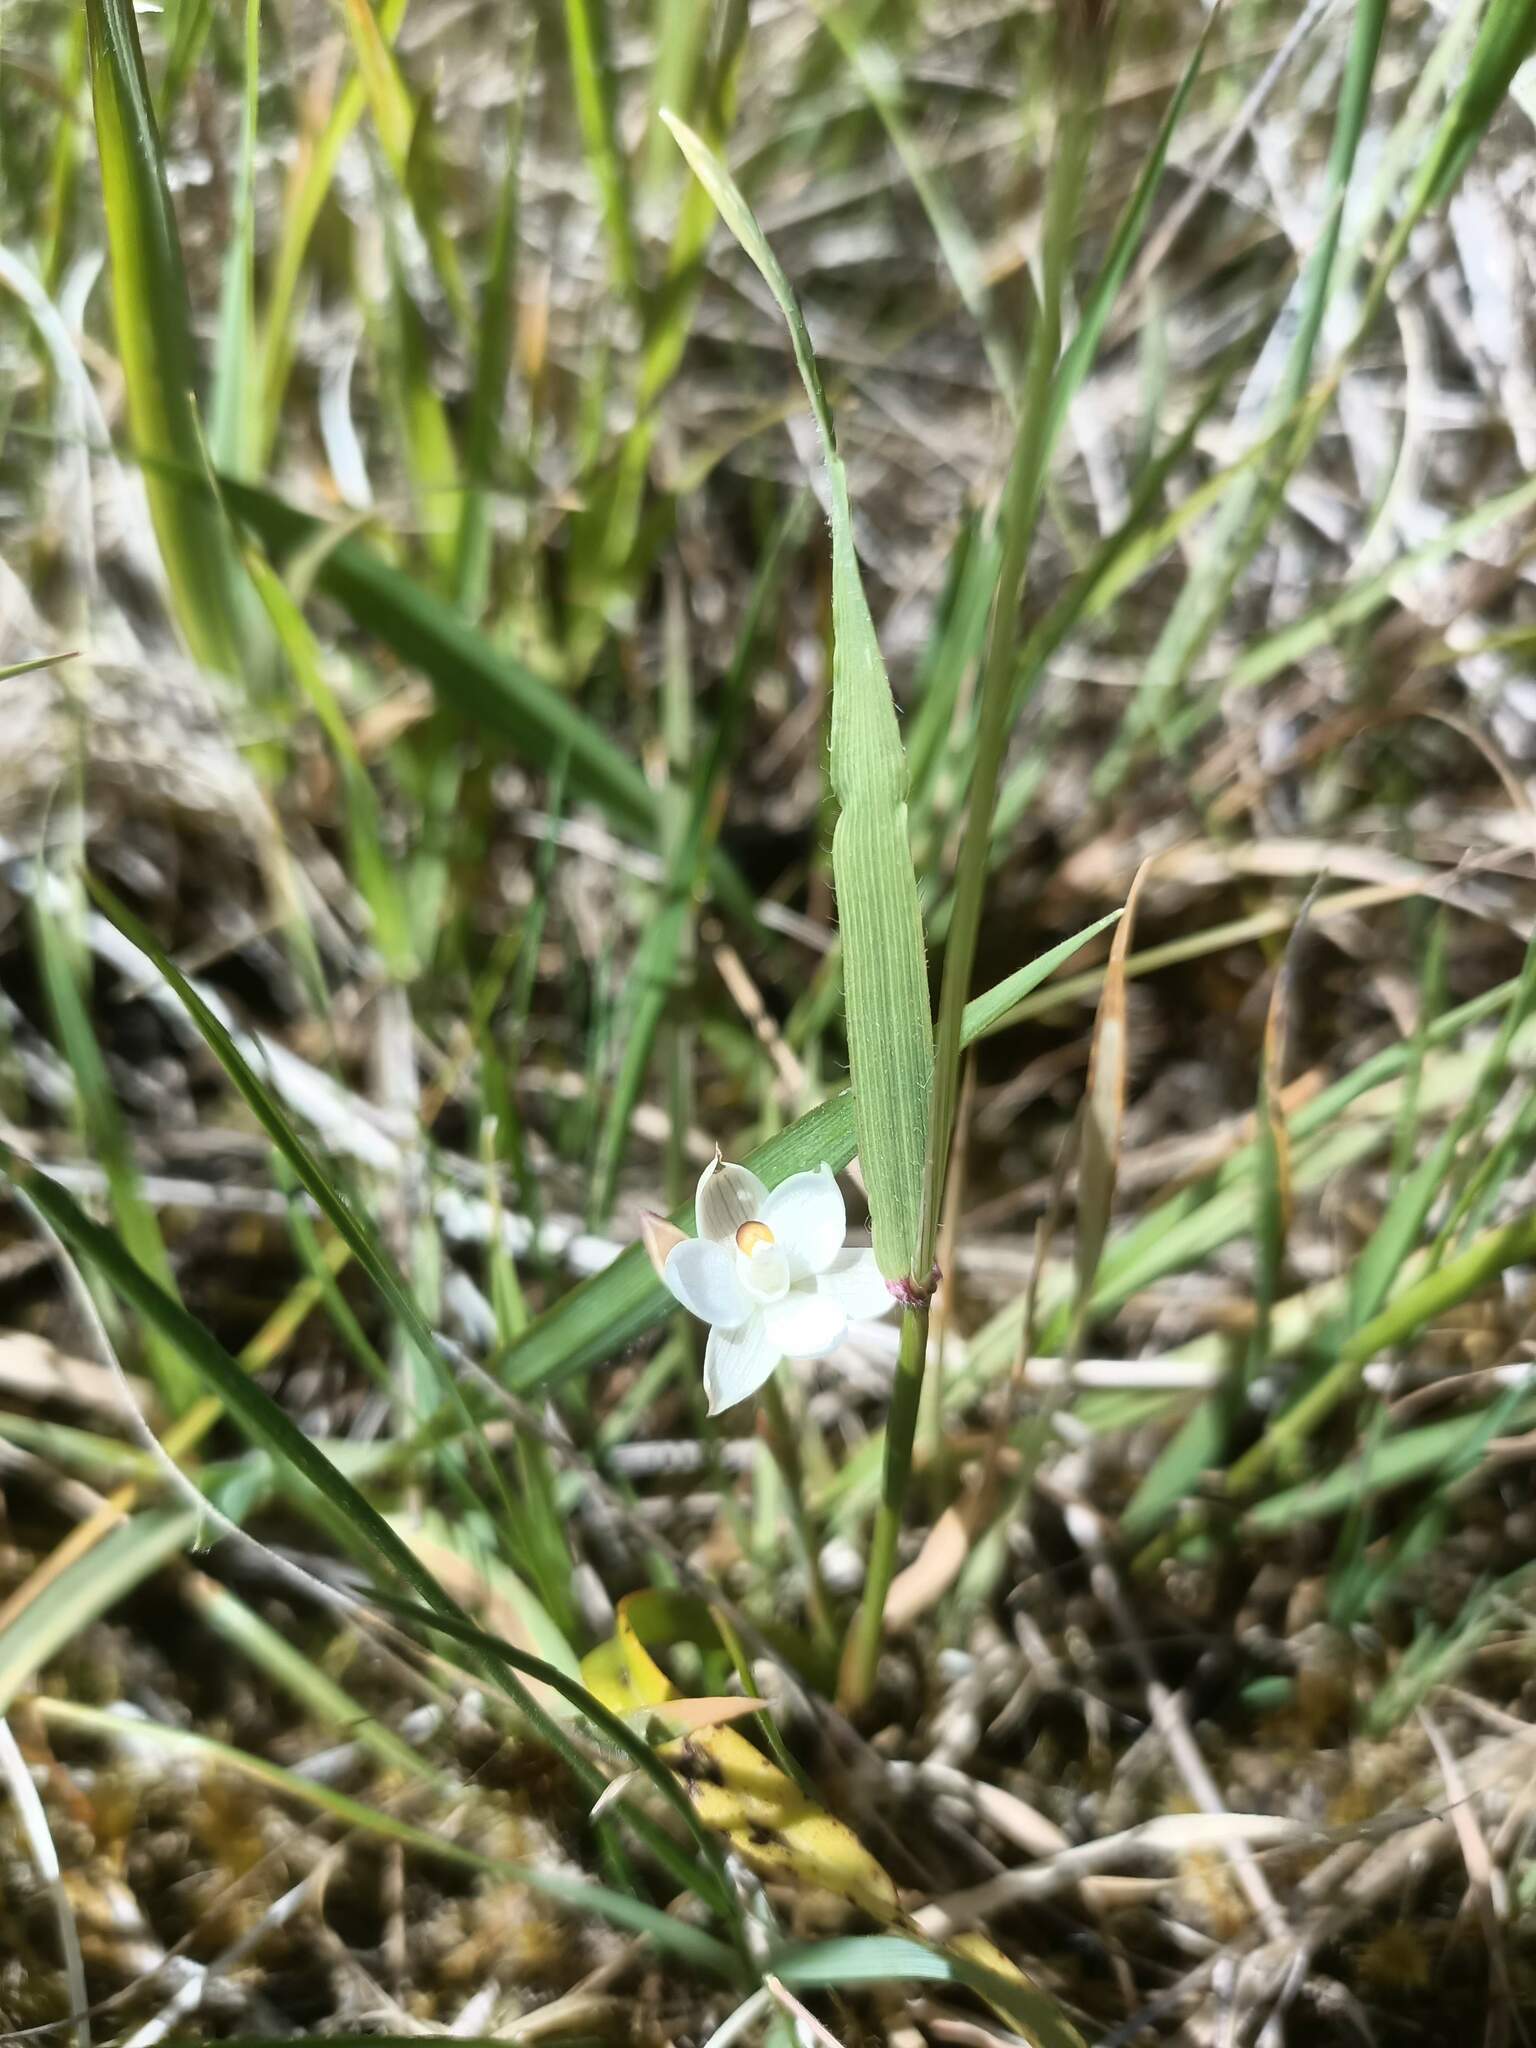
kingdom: Plantae
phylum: Tracheophyta
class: Liliopsida
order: Asparagales
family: Orchidaceae
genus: Thelymitra
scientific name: Thelymitra longifolia
